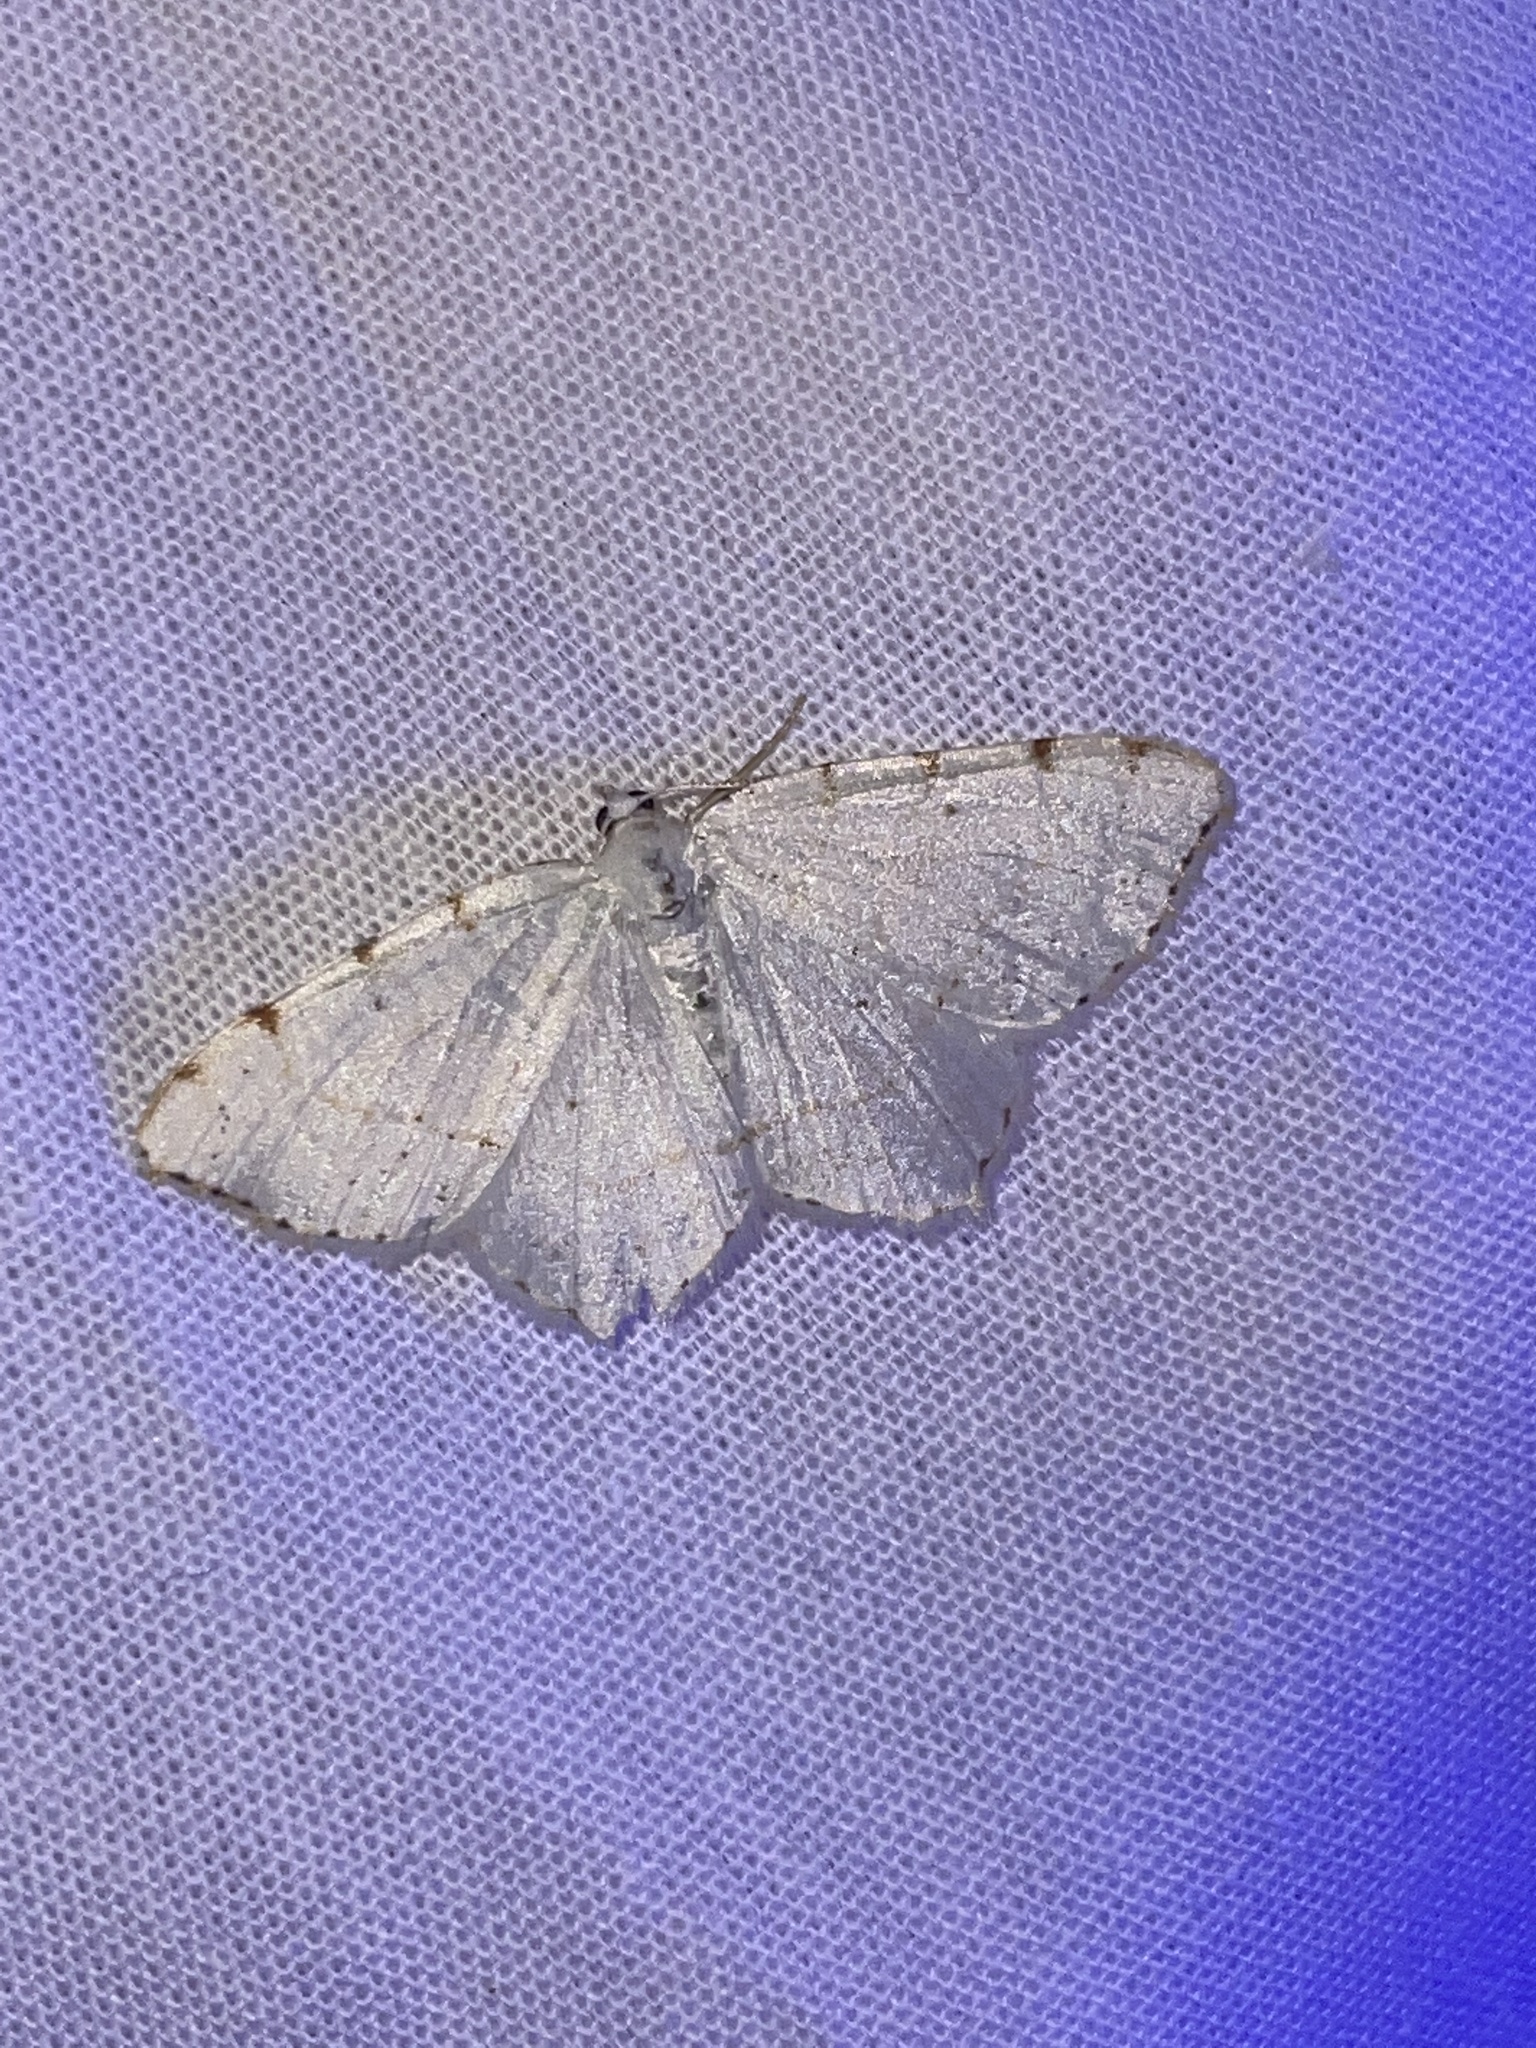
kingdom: Animalia
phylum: Arthropoda
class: Insecta
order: Lepidoptera
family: Geometridae
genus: Macaria
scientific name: Macaria pustularia
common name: Lesser maple spanworm moth
